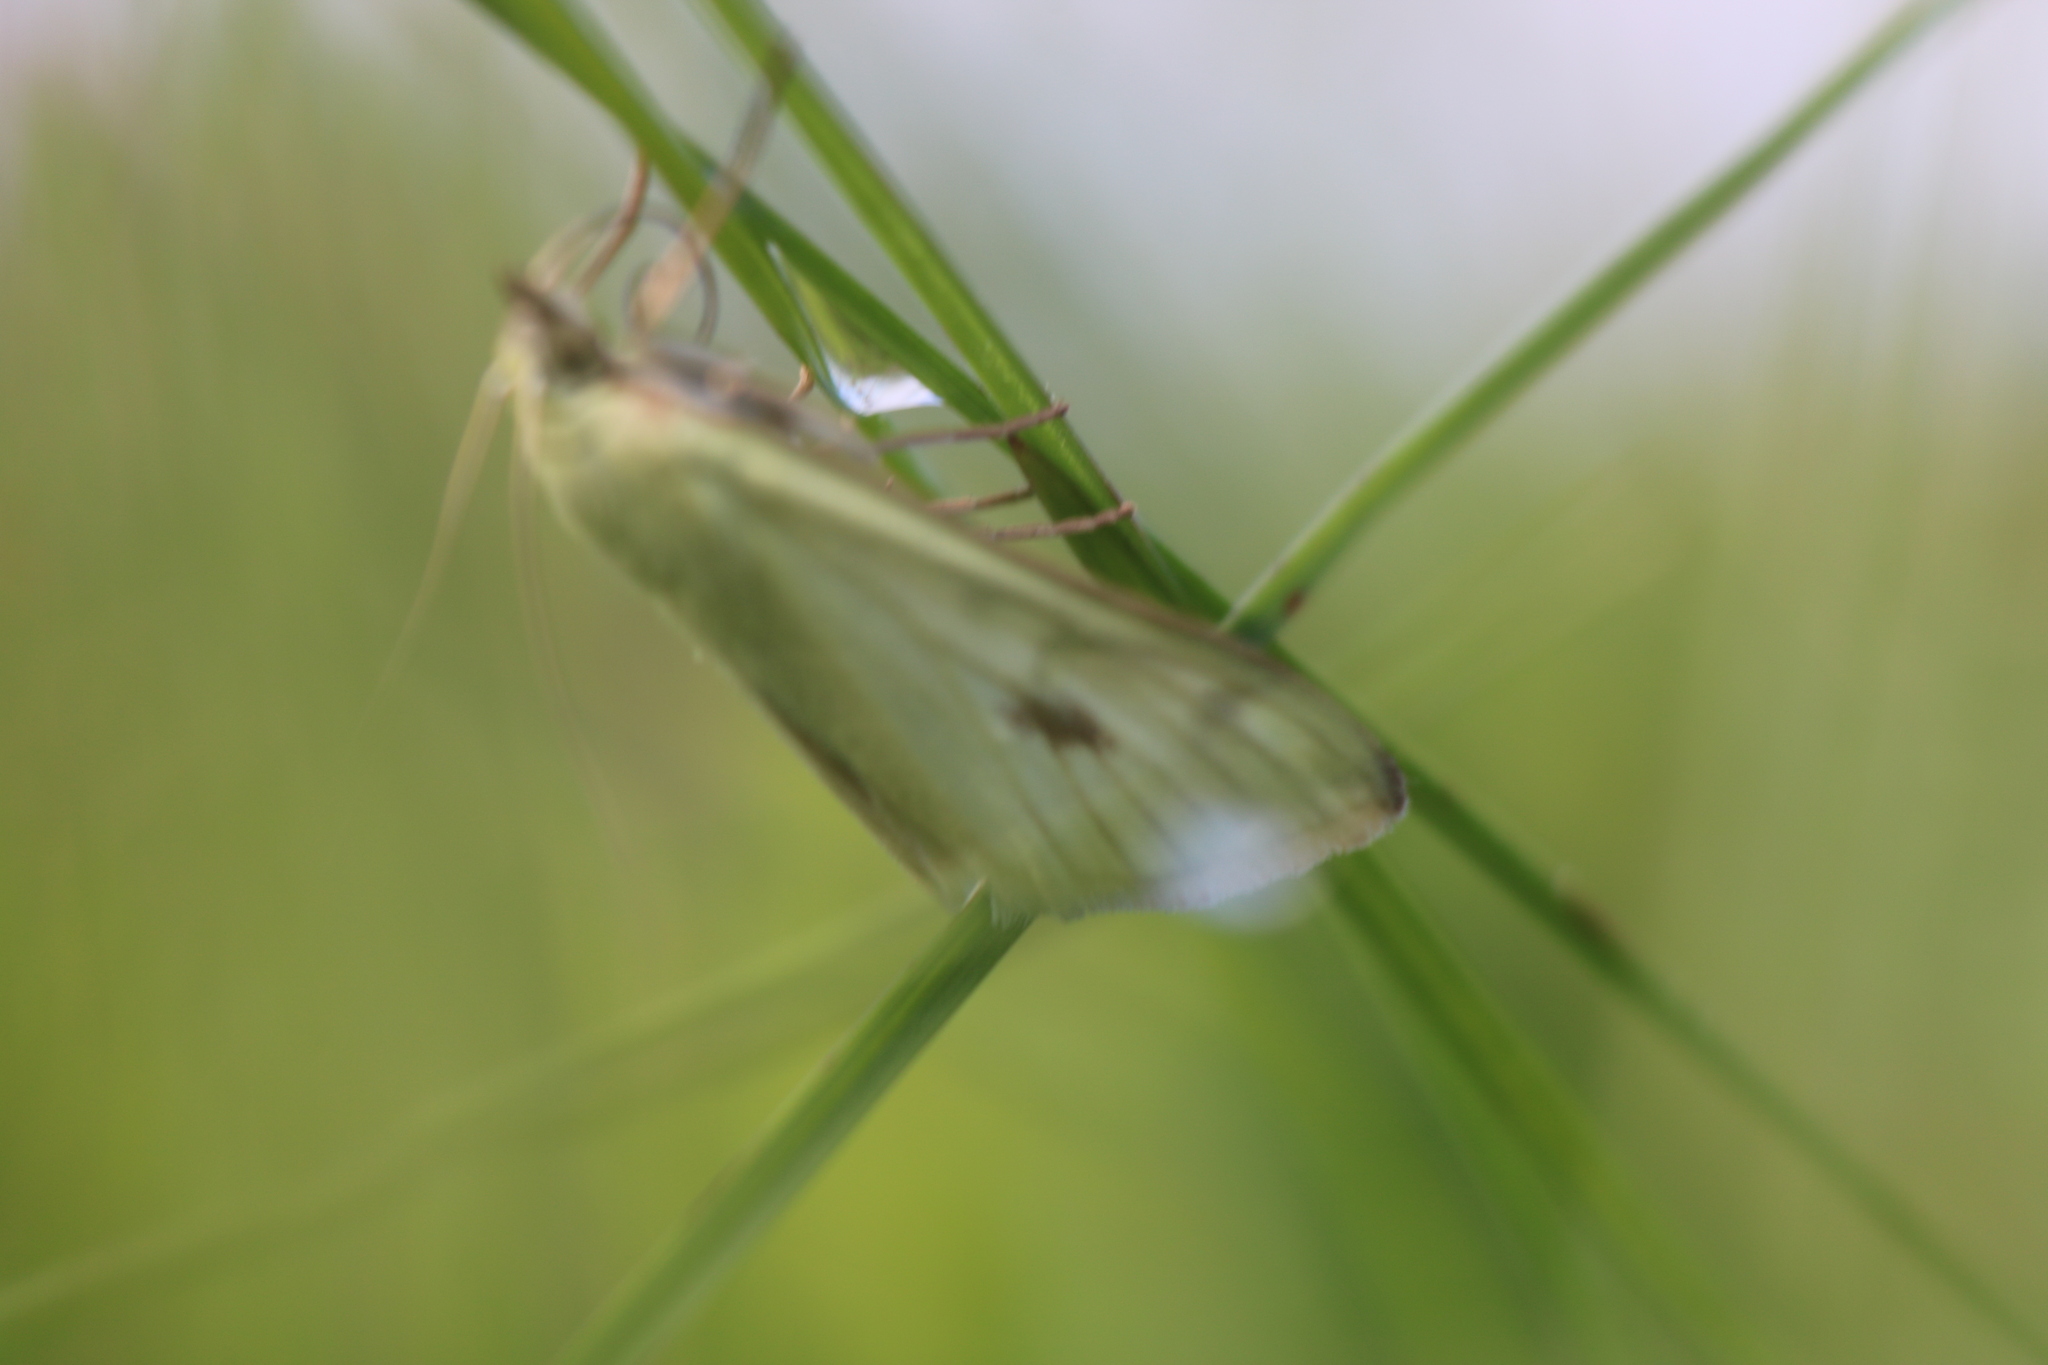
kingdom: Animalia
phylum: Arthropoda
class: Insecta
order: Lepidoptera
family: Crambidae
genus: Sitochroa
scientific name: Sitochroa palealis
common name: Greenish-yellow sitochroa moth
